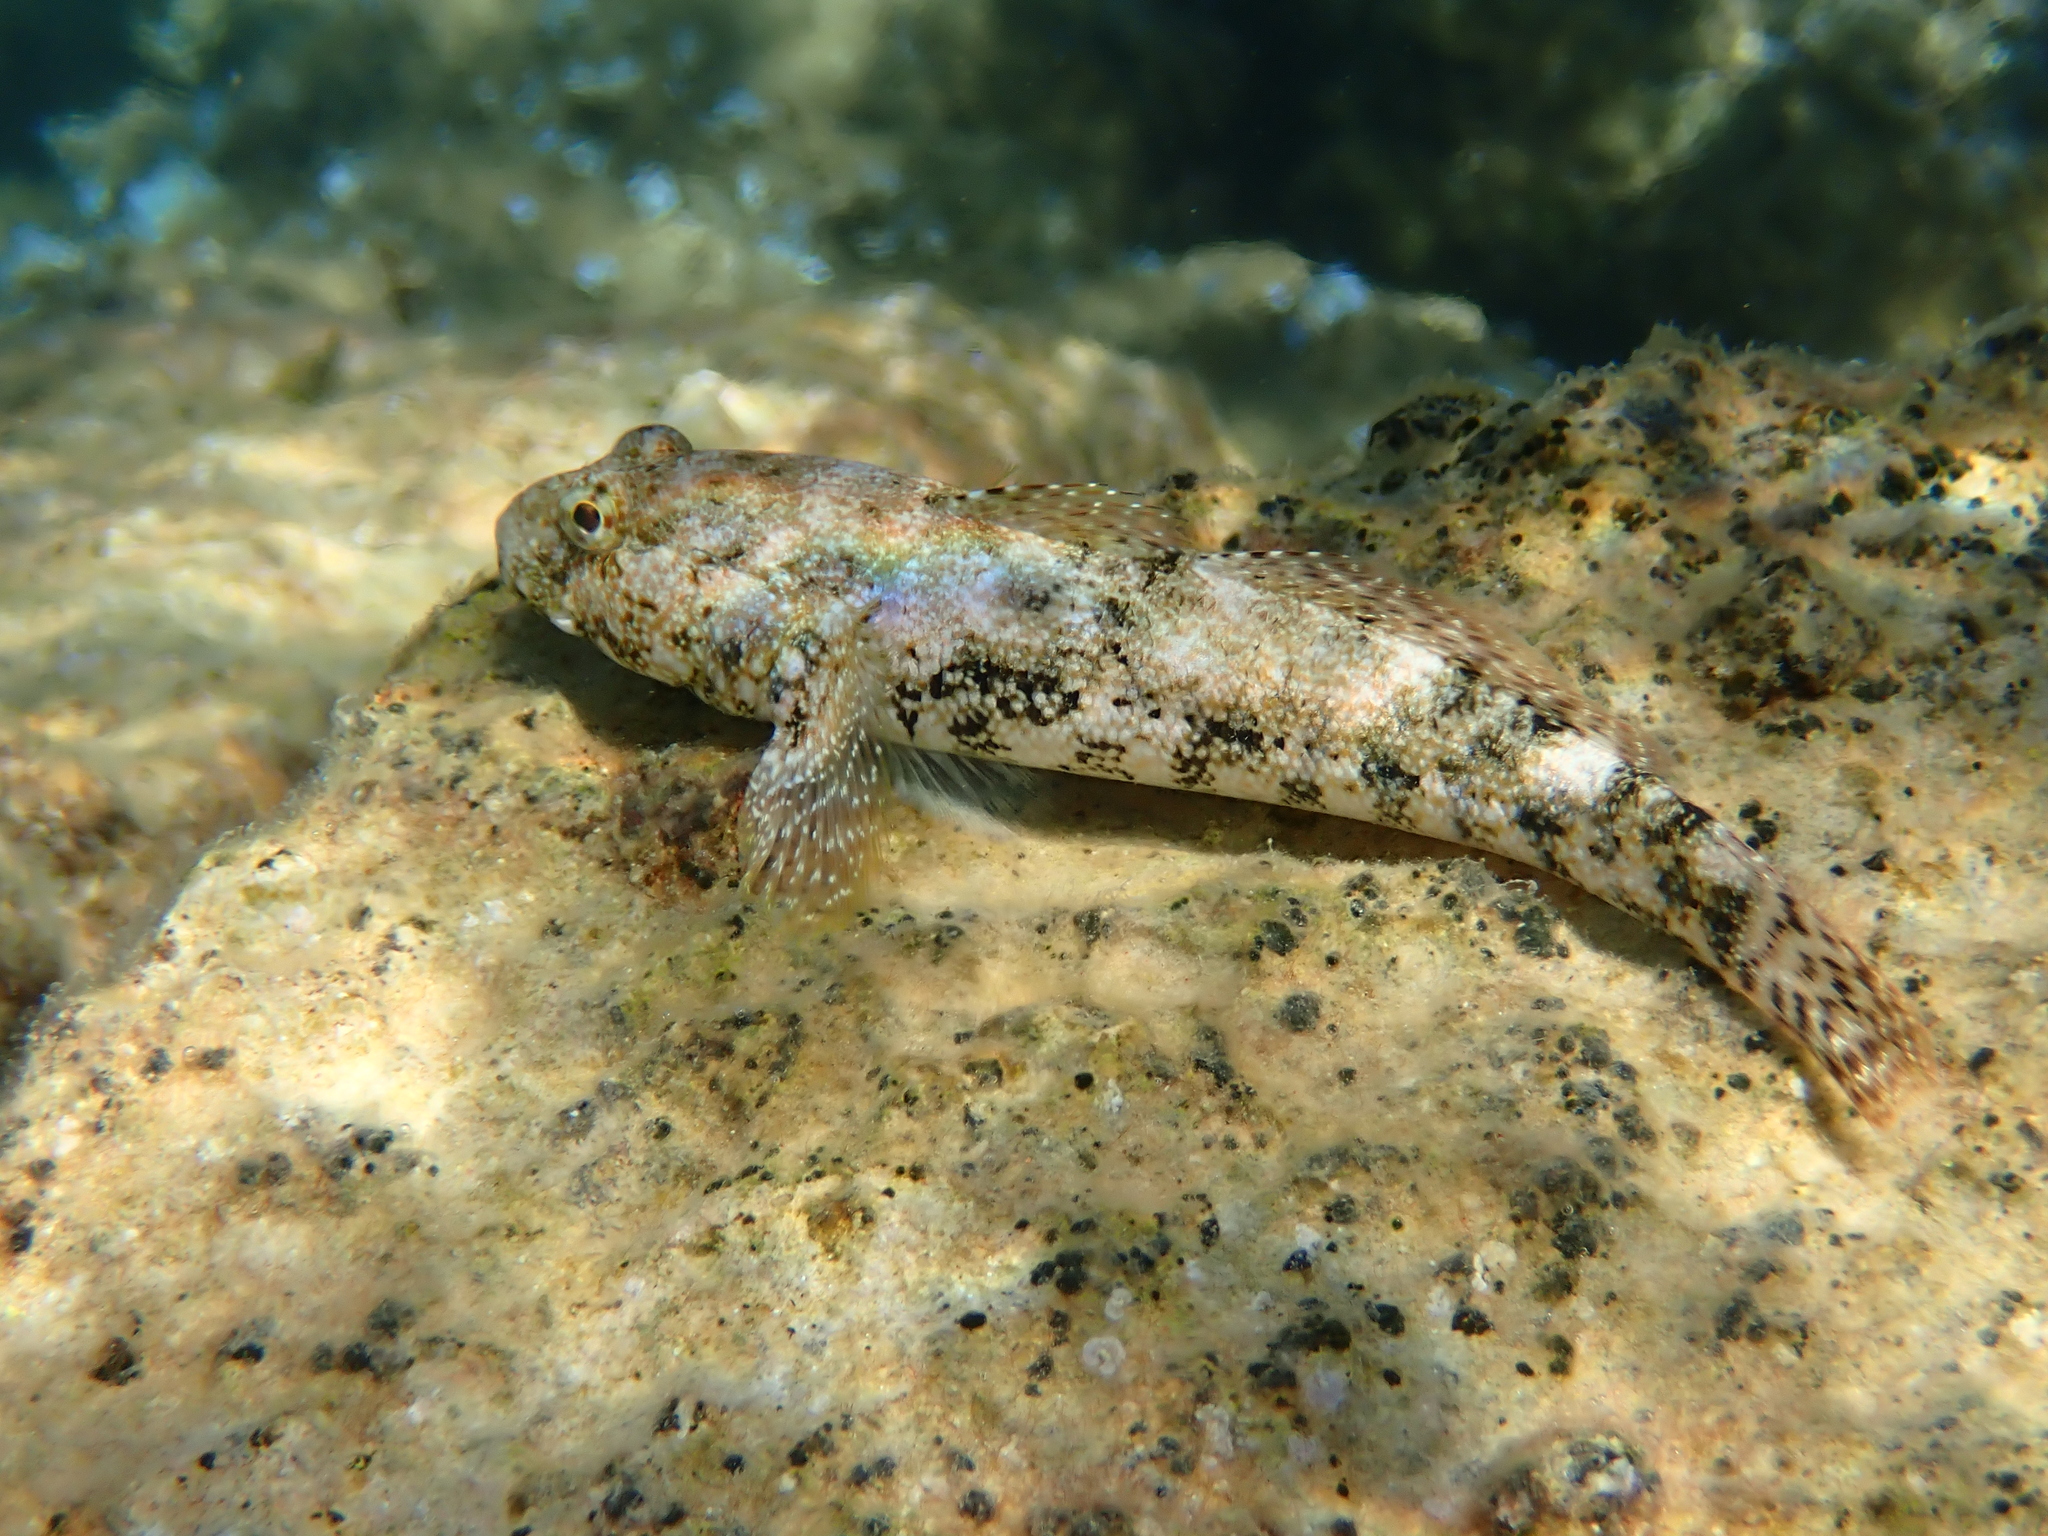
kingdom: Animalia
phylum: Chordata
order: Perciformes
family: Gobiidae
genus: Gobius
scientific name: Gobius cobitis
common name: Giant goby
